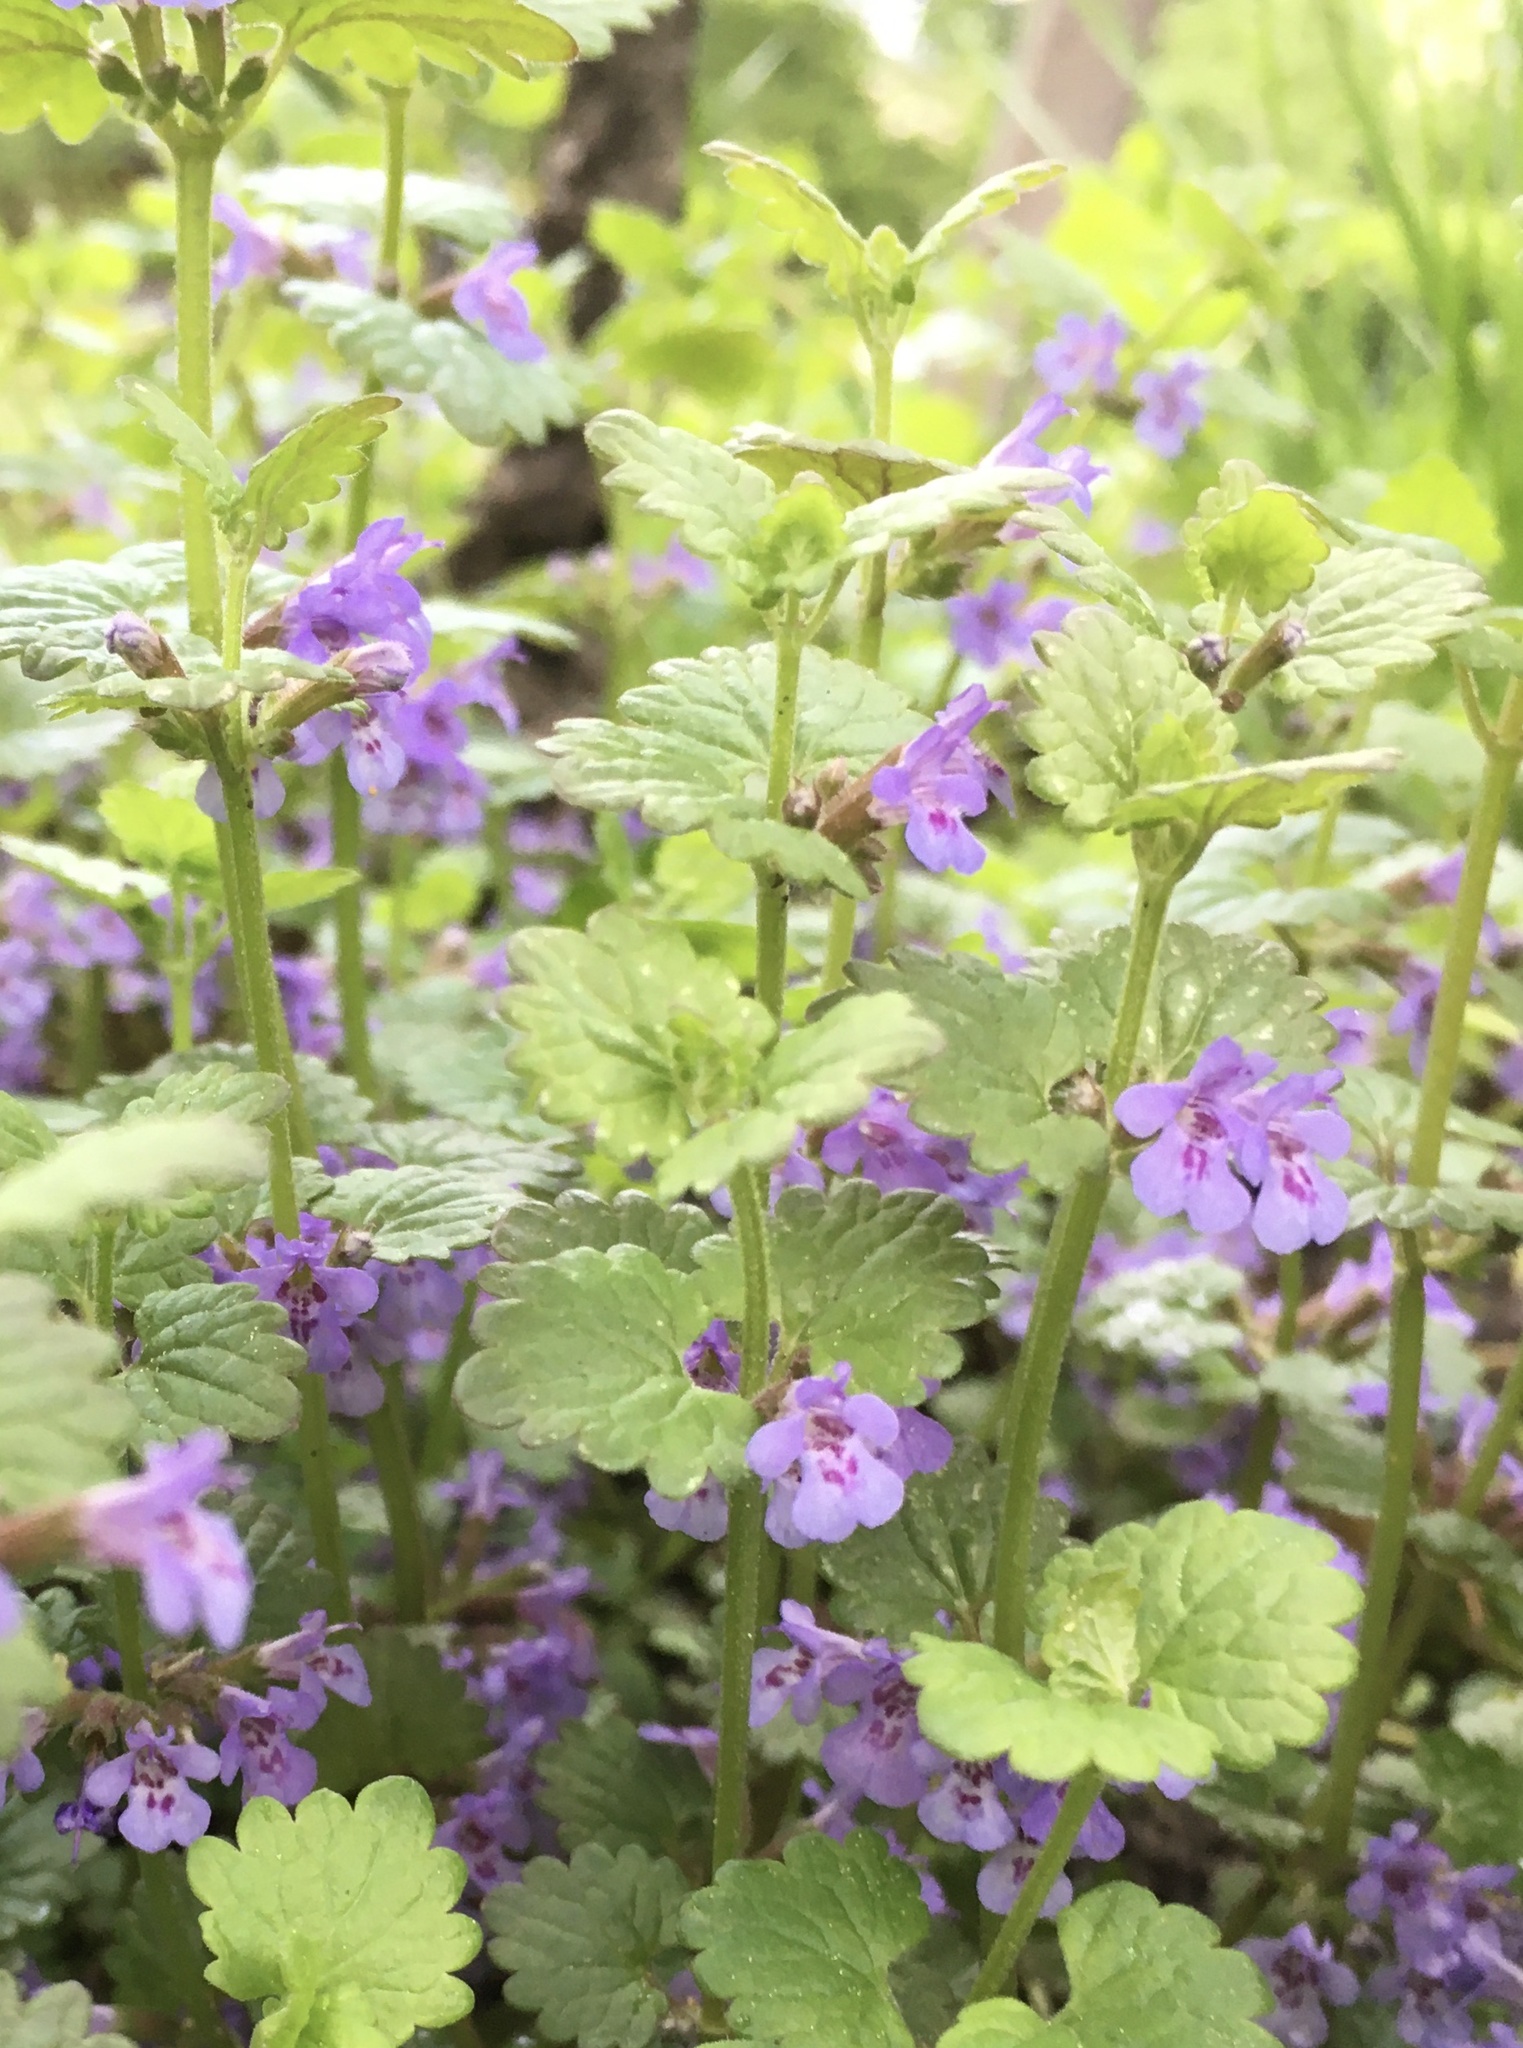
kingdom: Plantae
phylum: Tracheophyta
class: Magnoliopsida
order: Lamiales
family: Lamiaceae
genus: Glechoma
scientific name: Glechoma hederacea
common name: Ground ivy
